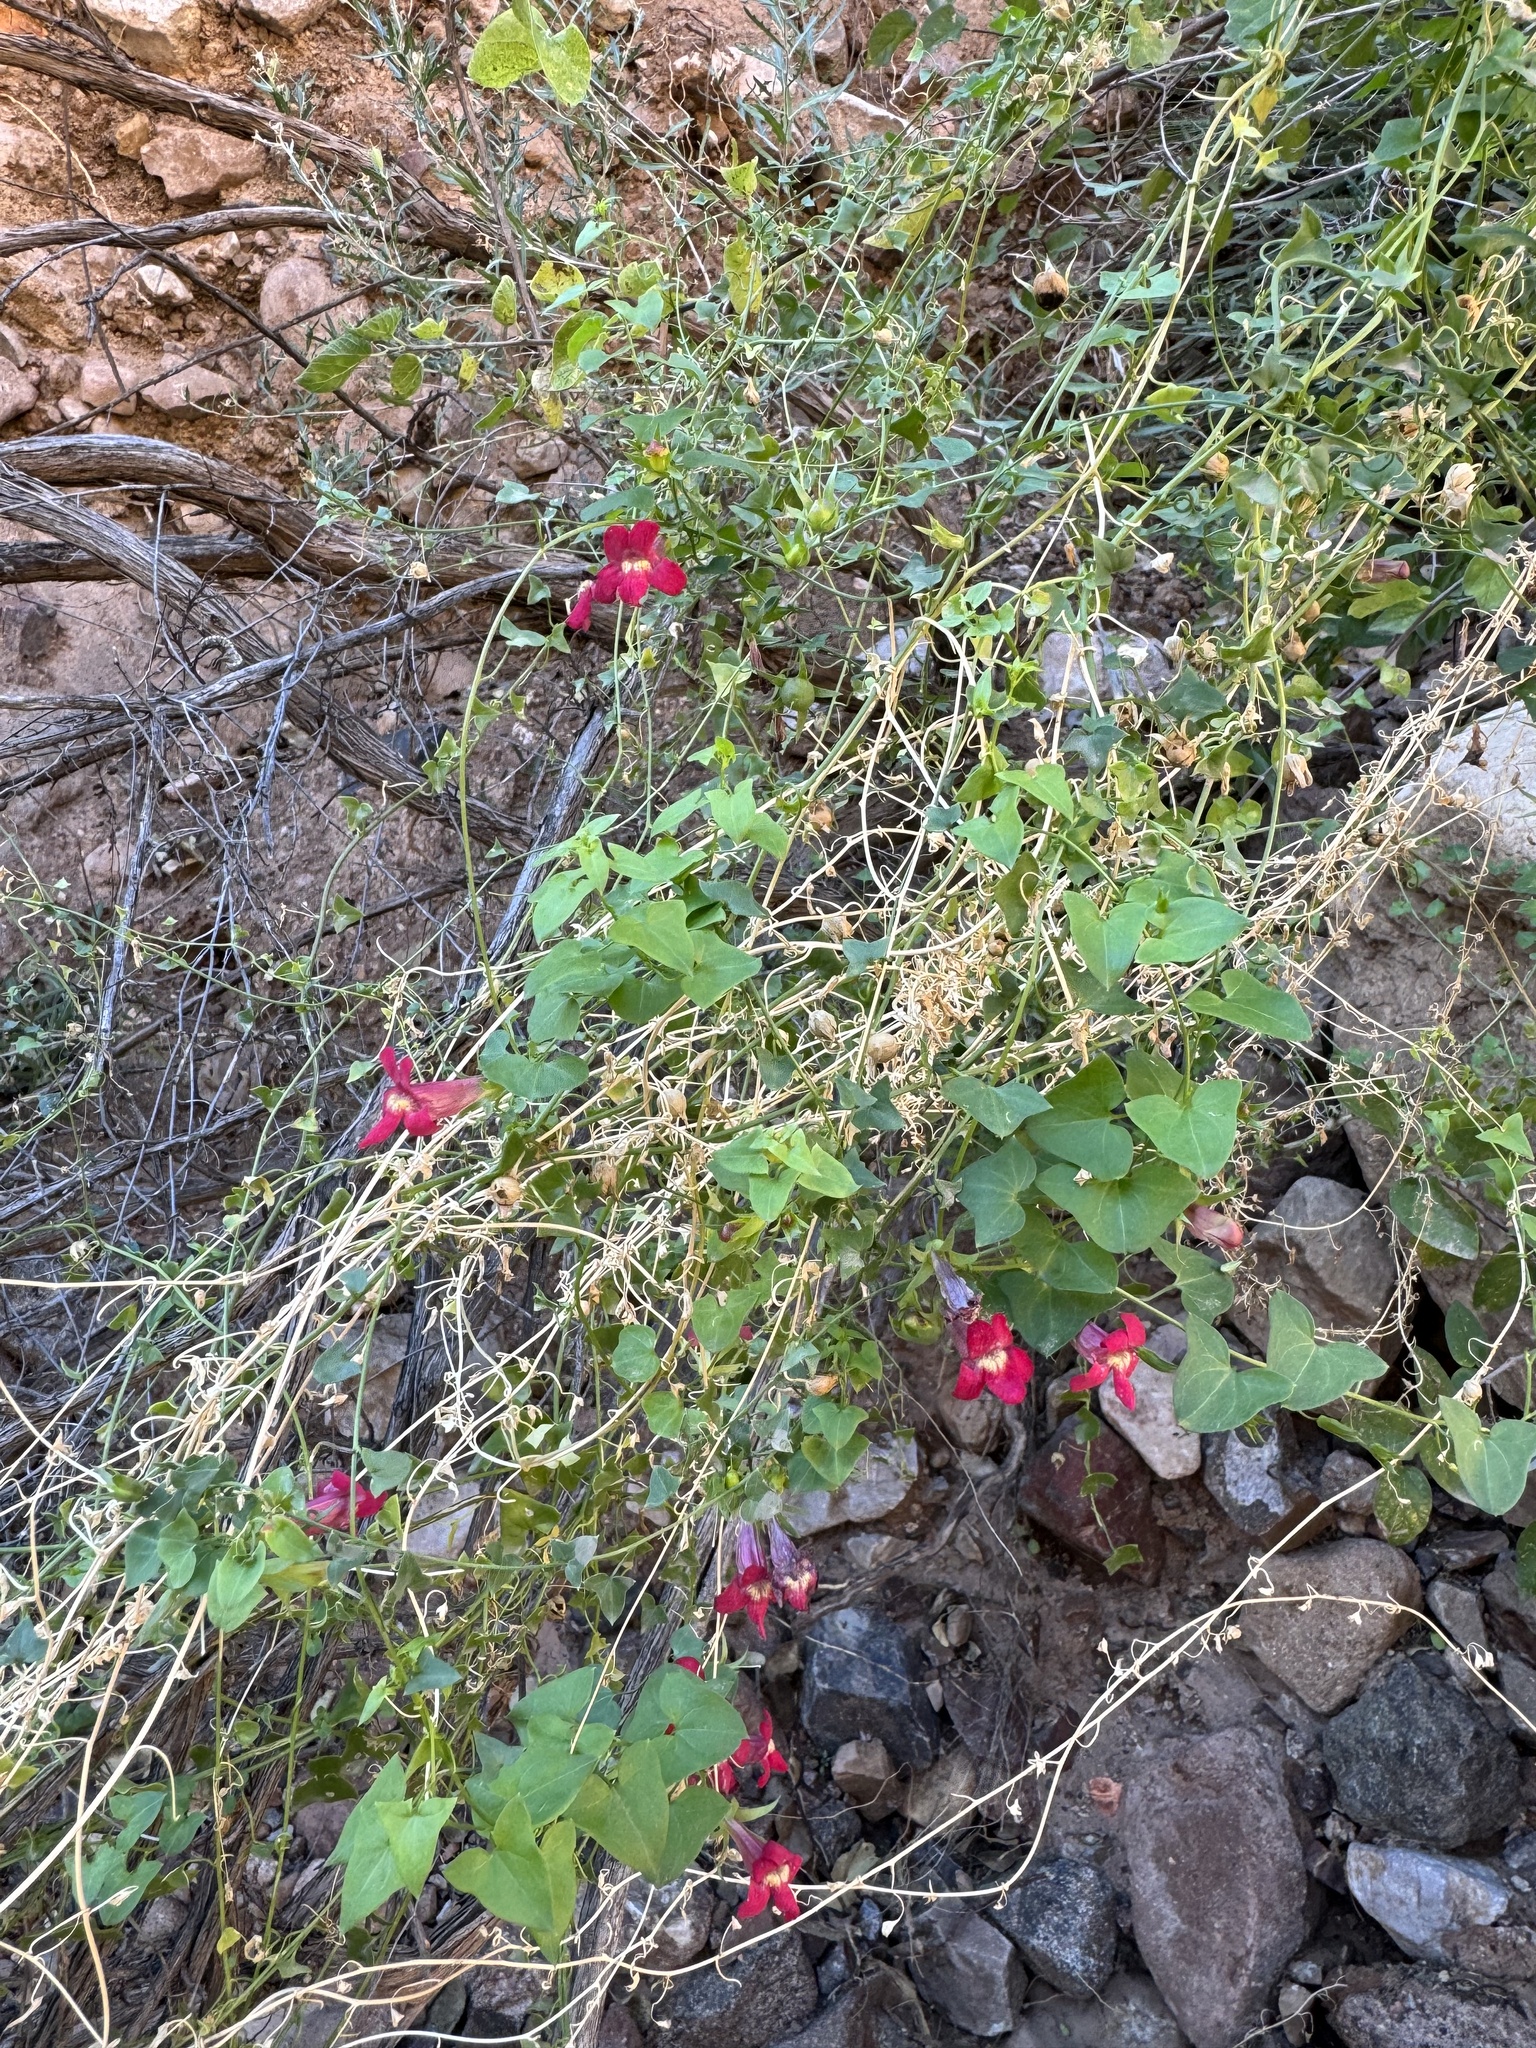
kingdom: Plantae
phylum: Tracheophyta
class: Magnoliopsida
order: Lamiales
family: Plantaginaceae
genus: Maurandella
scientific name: Maurandella antirrhiniflora
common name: Violet twining-snapdragon
